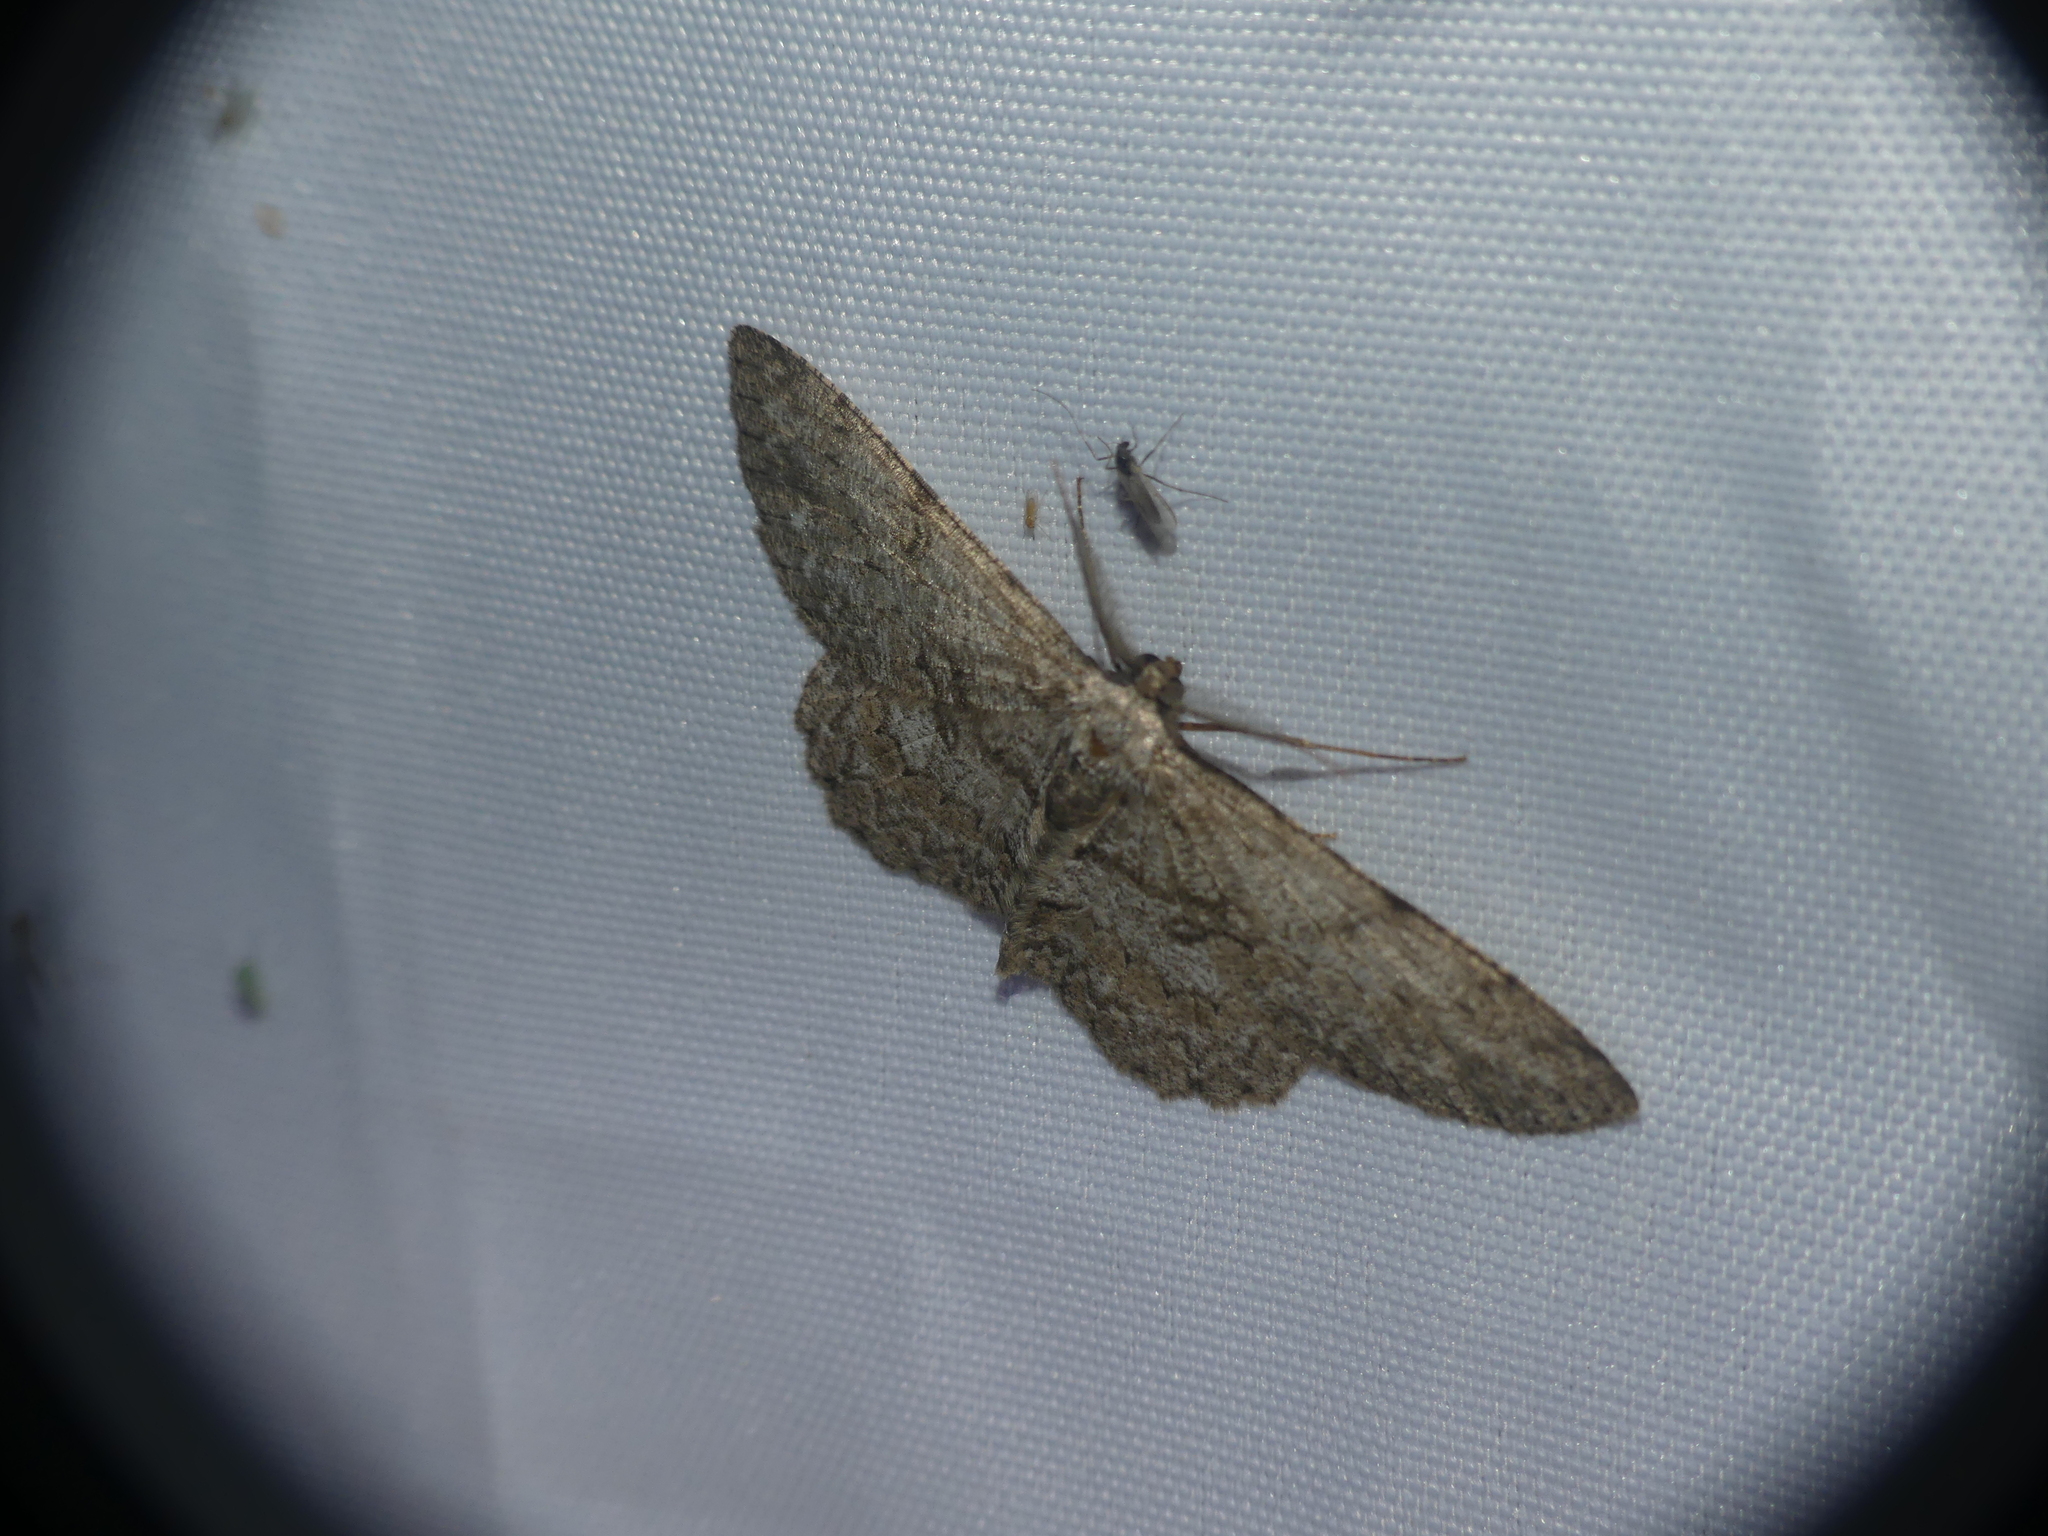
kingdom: Animalia
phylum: Arthropoda
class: Insecta
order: Lepidoptera
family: Geometridae
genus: Hypomecis
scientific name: Hypomecis punctinalis
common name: Pale oak beauty
